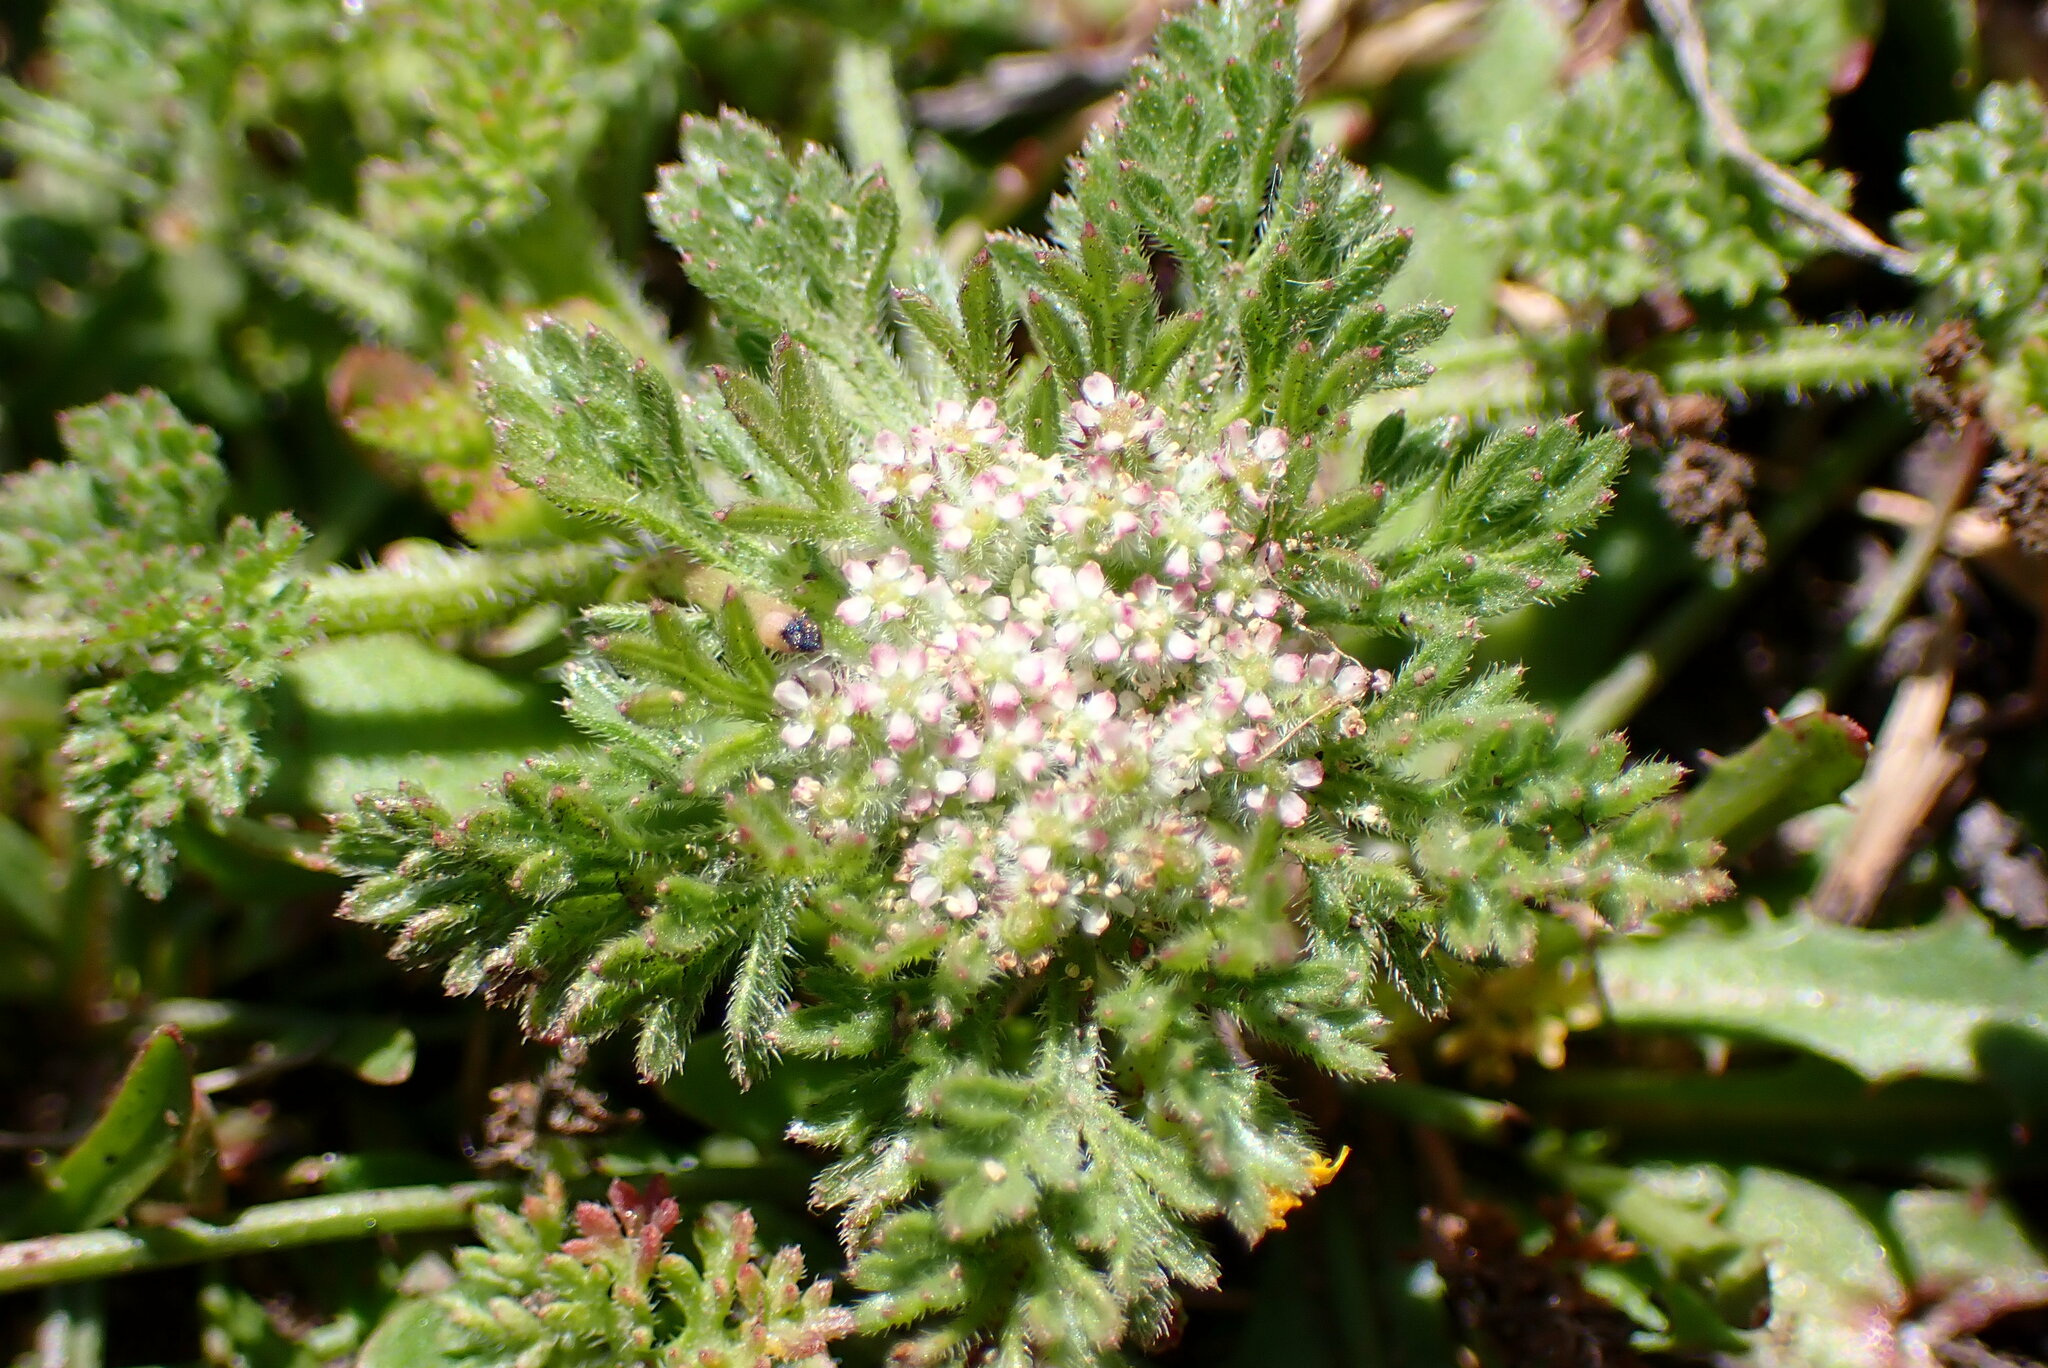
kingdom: Plantae
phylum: Tracheophyta
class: Magnoliopsida
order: Apiales
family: Apiaceae
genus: Daucus
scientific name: Daucus pusillus
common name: Southwest wild carrot
